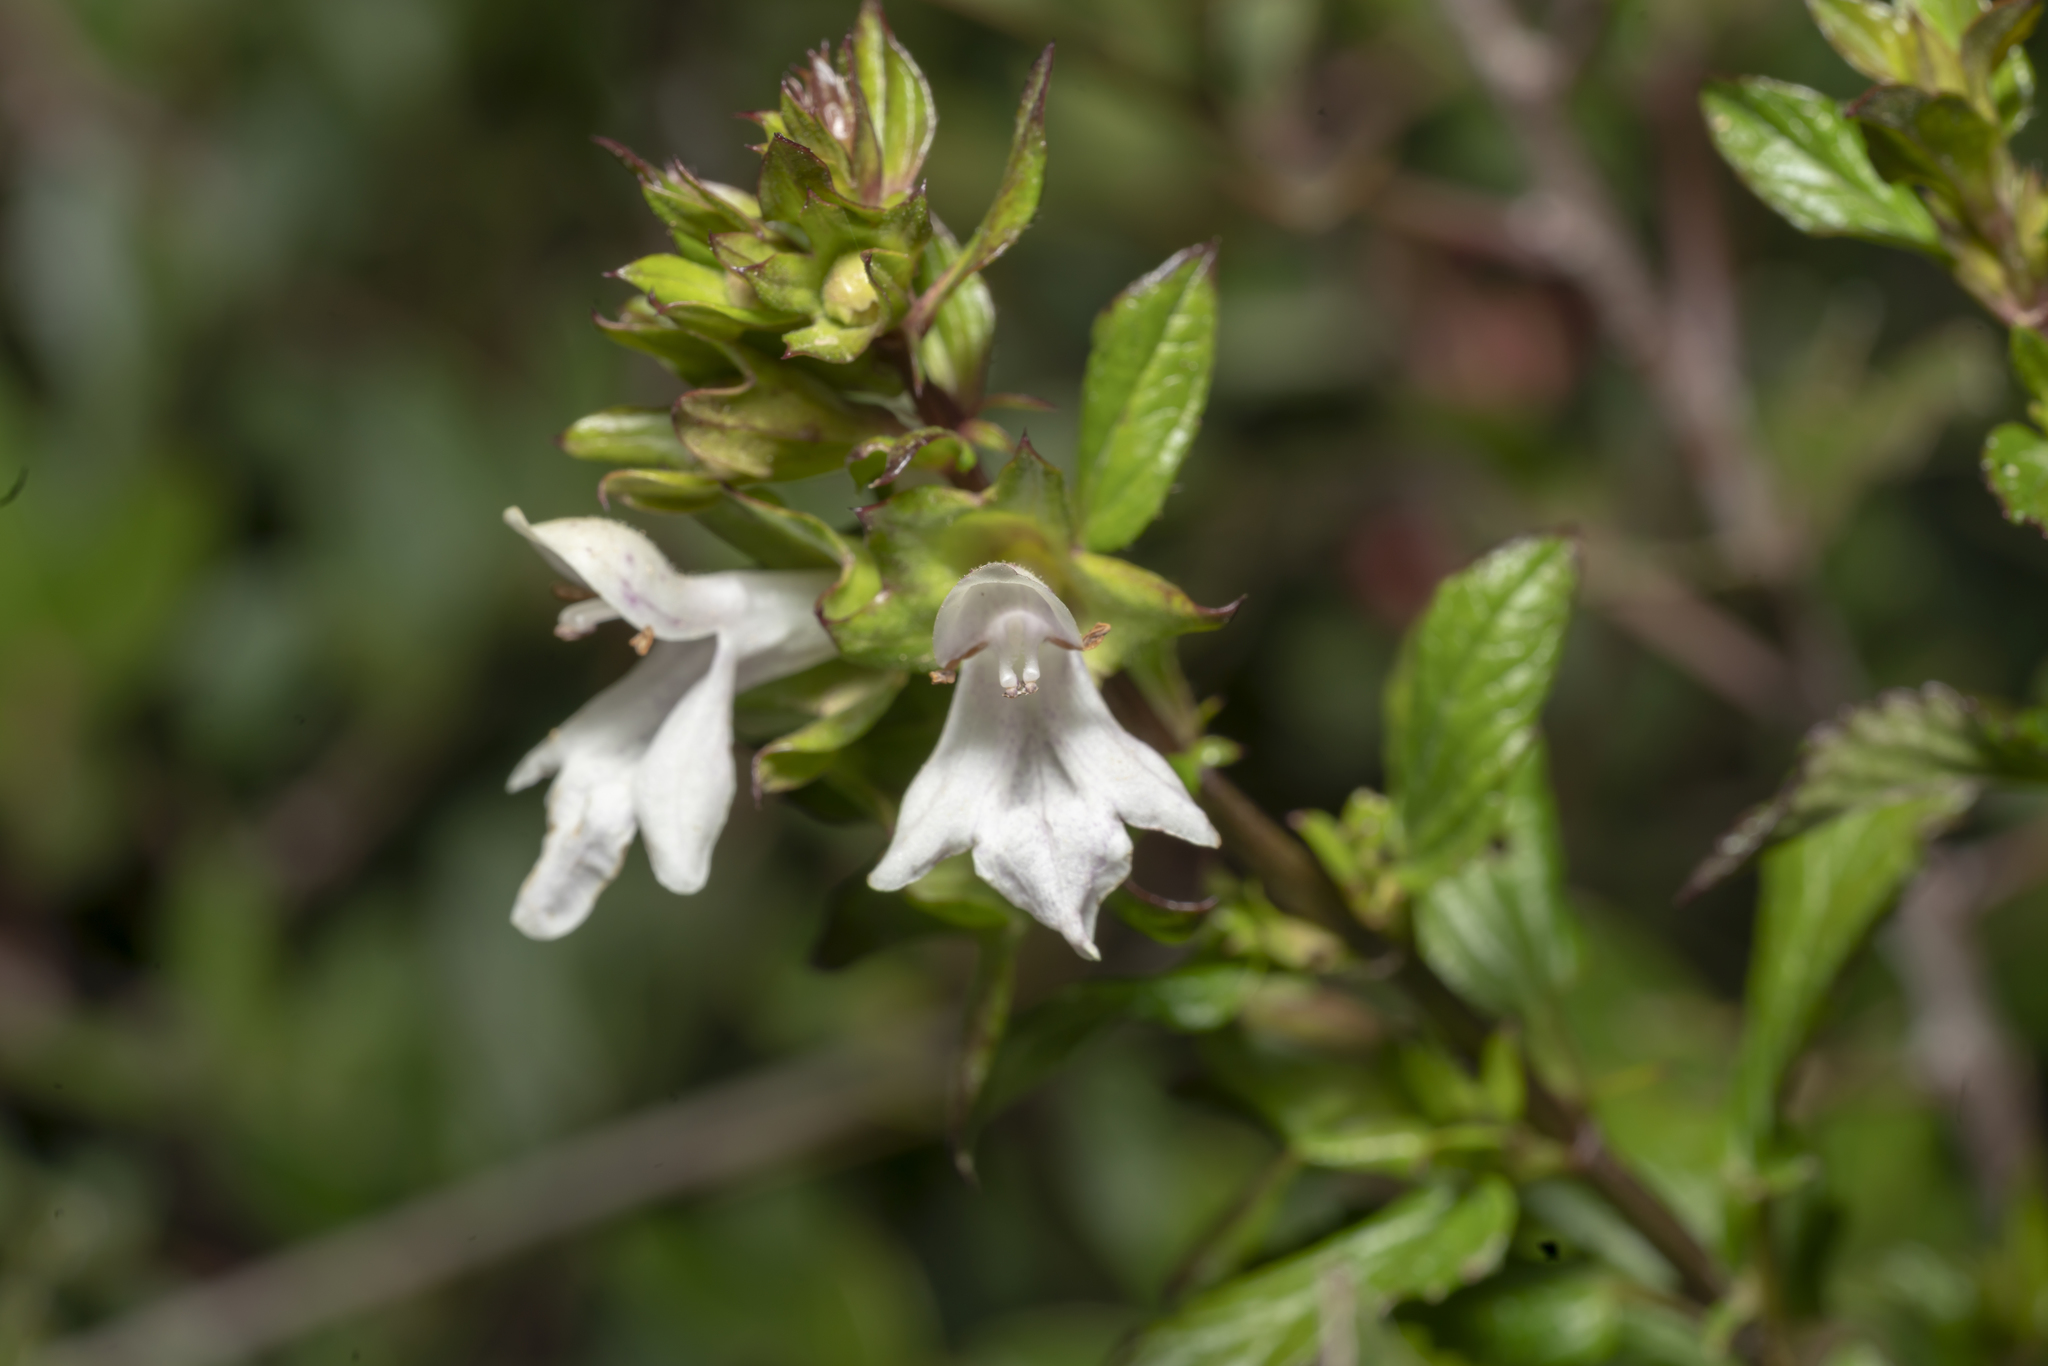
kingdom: Plantae
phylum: Tracheophyta
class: Magnoliopsida
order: Lamiales
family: Lamiaceae
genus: Prasium
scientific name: Prasium majus
